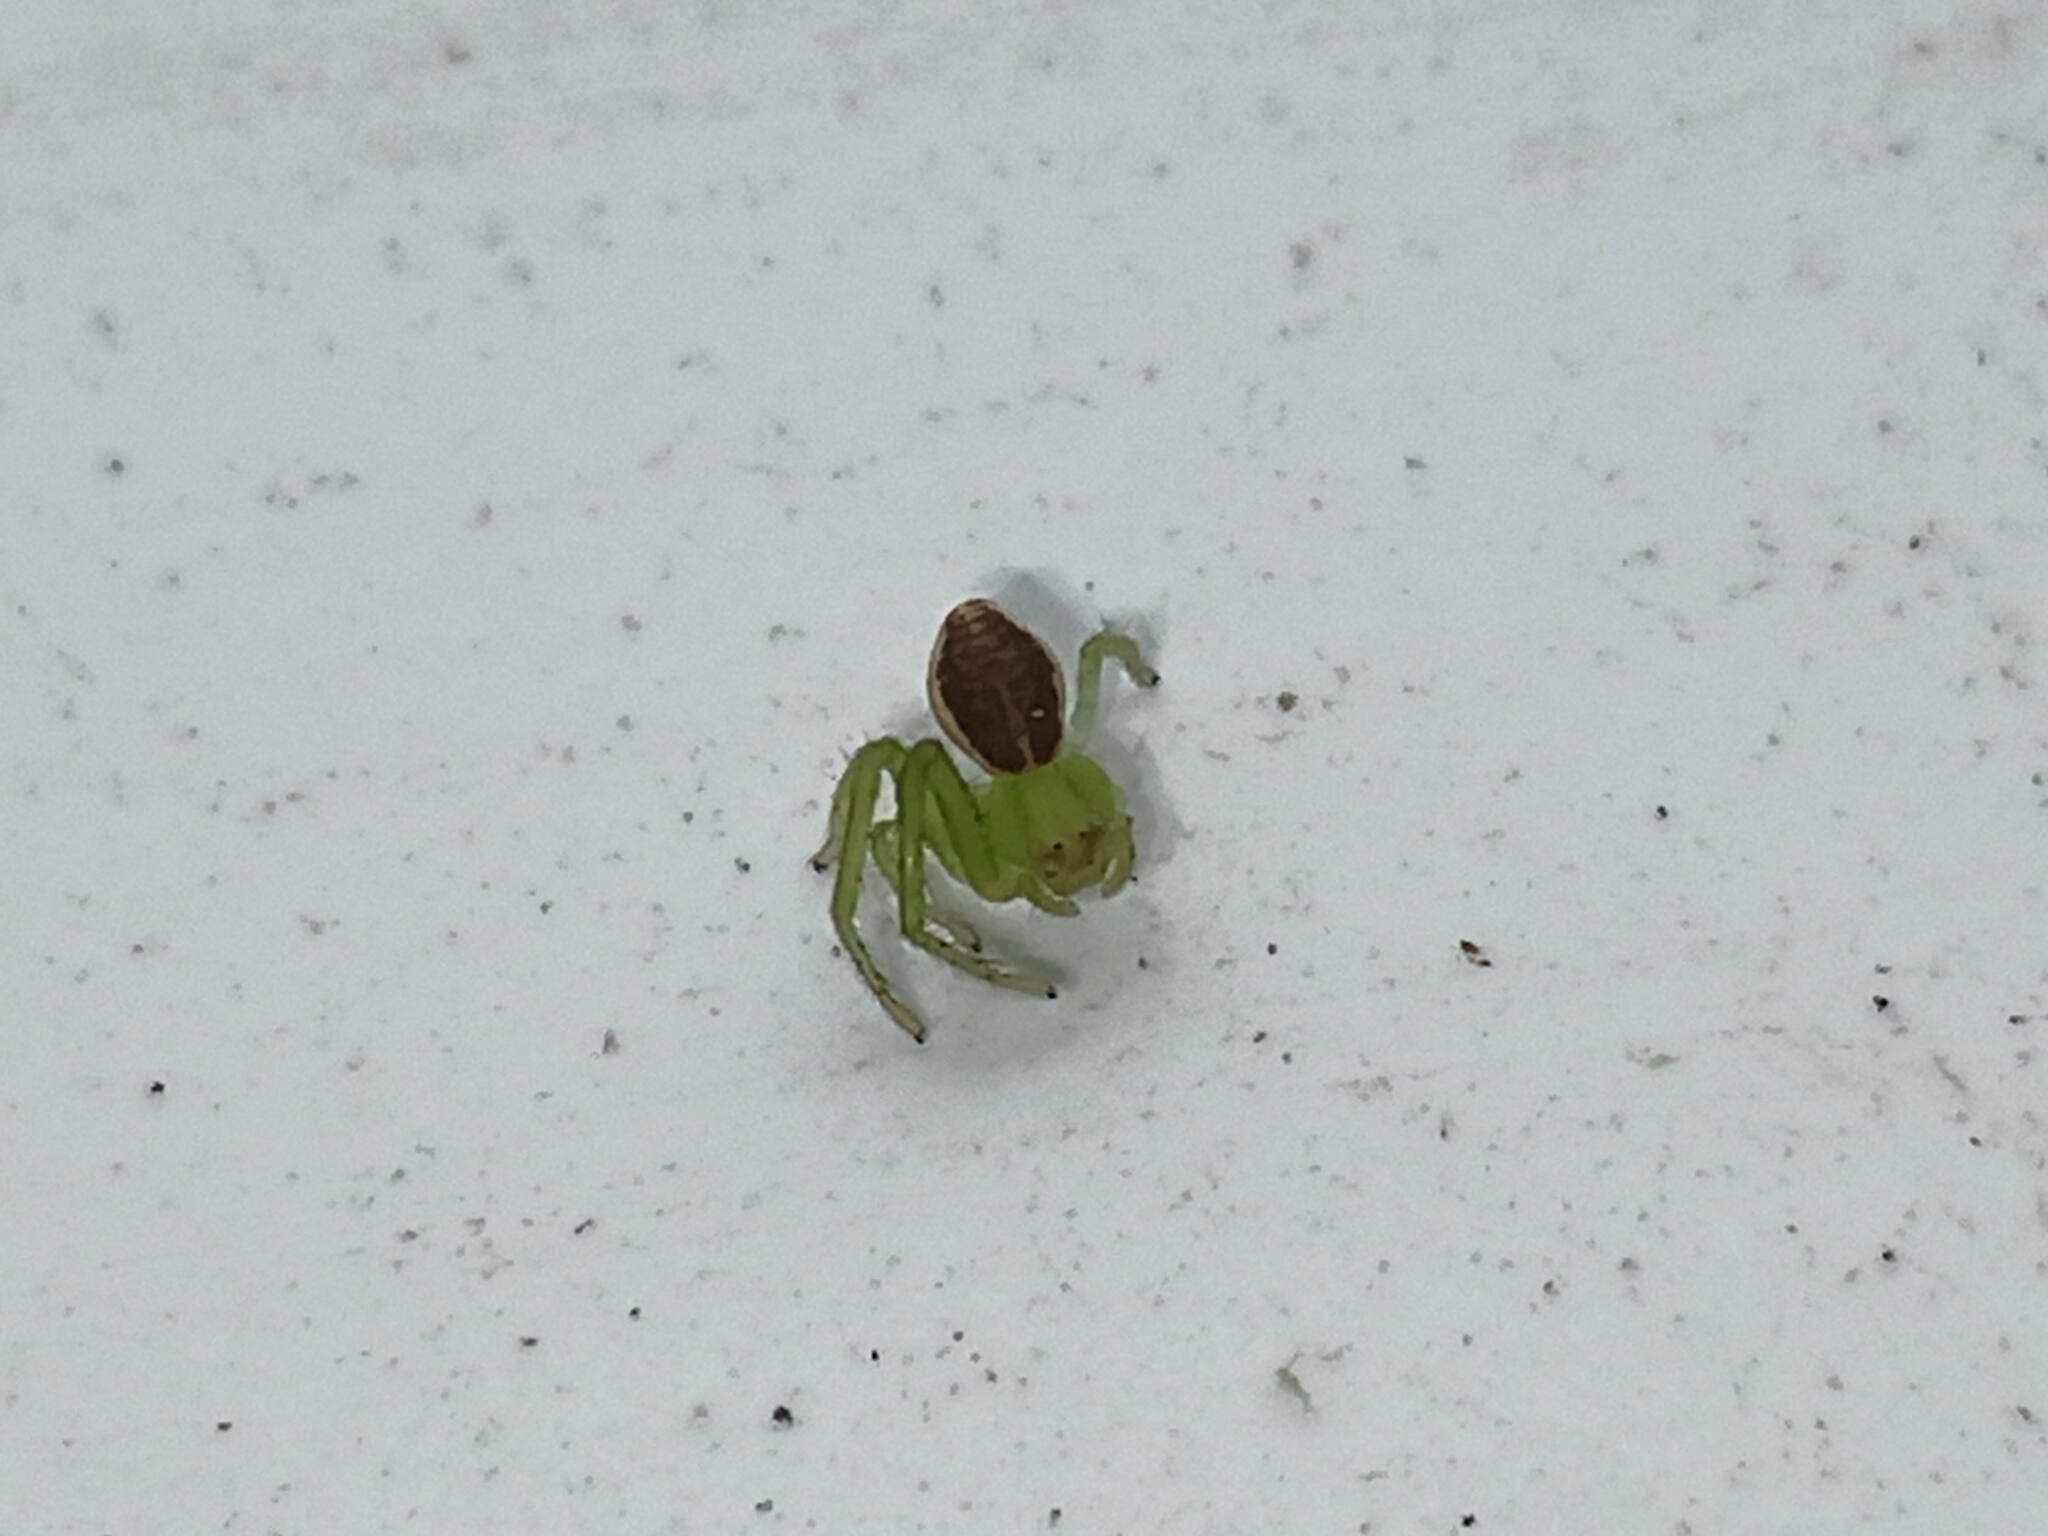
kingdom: Animalia
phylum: Arthropoda
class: Arachnida
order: Araneae
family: Thomisidae
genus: Diaea
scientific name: Diaea dorsata
